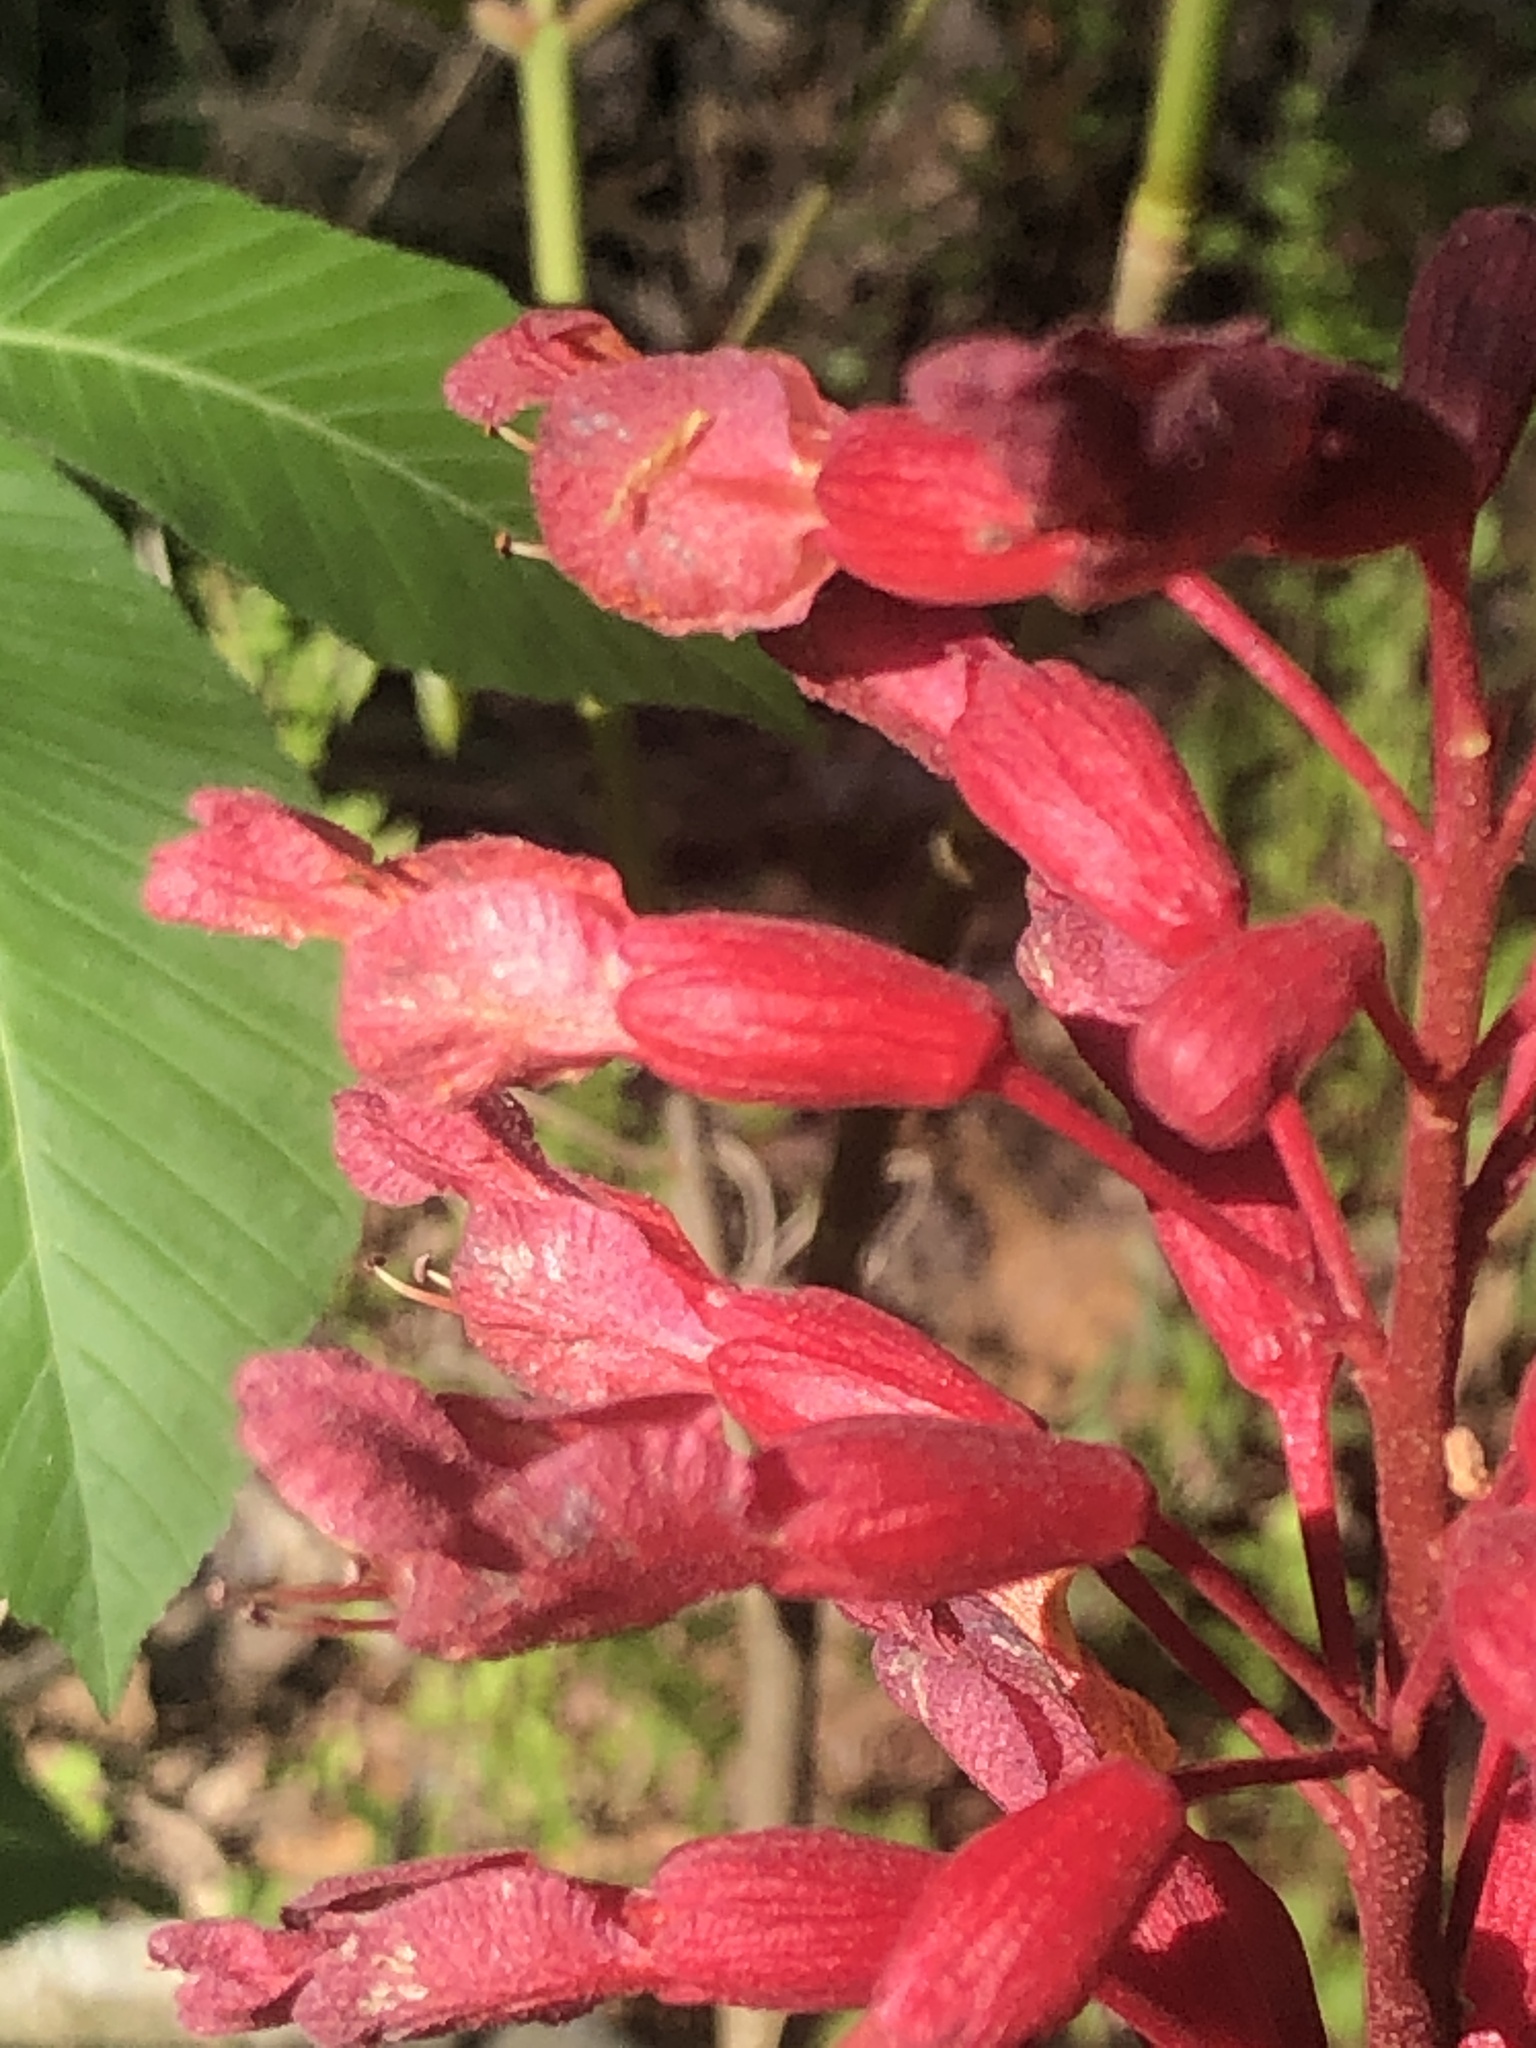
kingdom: Plantae
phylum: Tracheophyta
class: Magnoliopsida
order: Sapindales
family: Sapindaceae
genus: Aesculus
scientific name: Aesculus pavia
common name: Red buckeye
